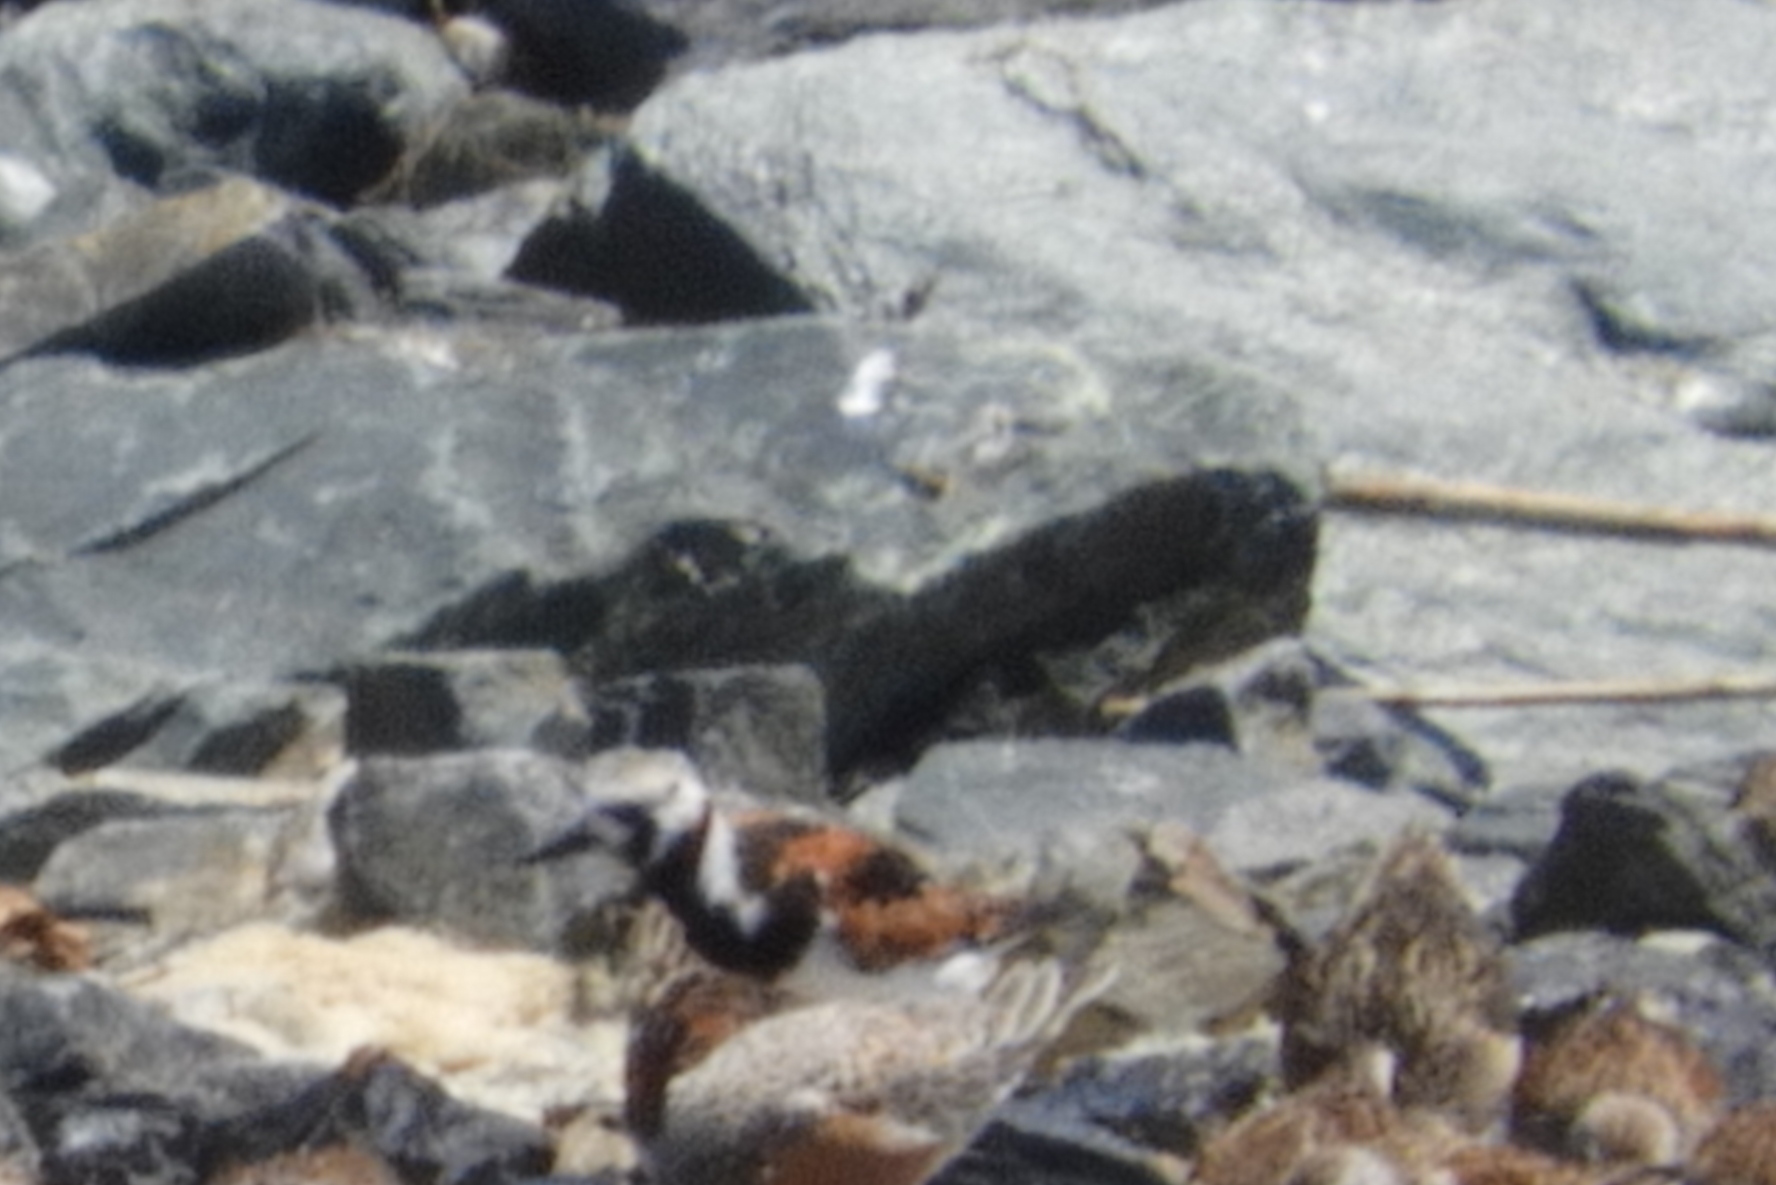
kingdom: Animalia
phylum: Chordata
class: Aves
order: Charadriiformes
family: Scolopacidae
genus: Arenaria
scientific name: Arenaria interpres
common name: Ruddy turnstone
